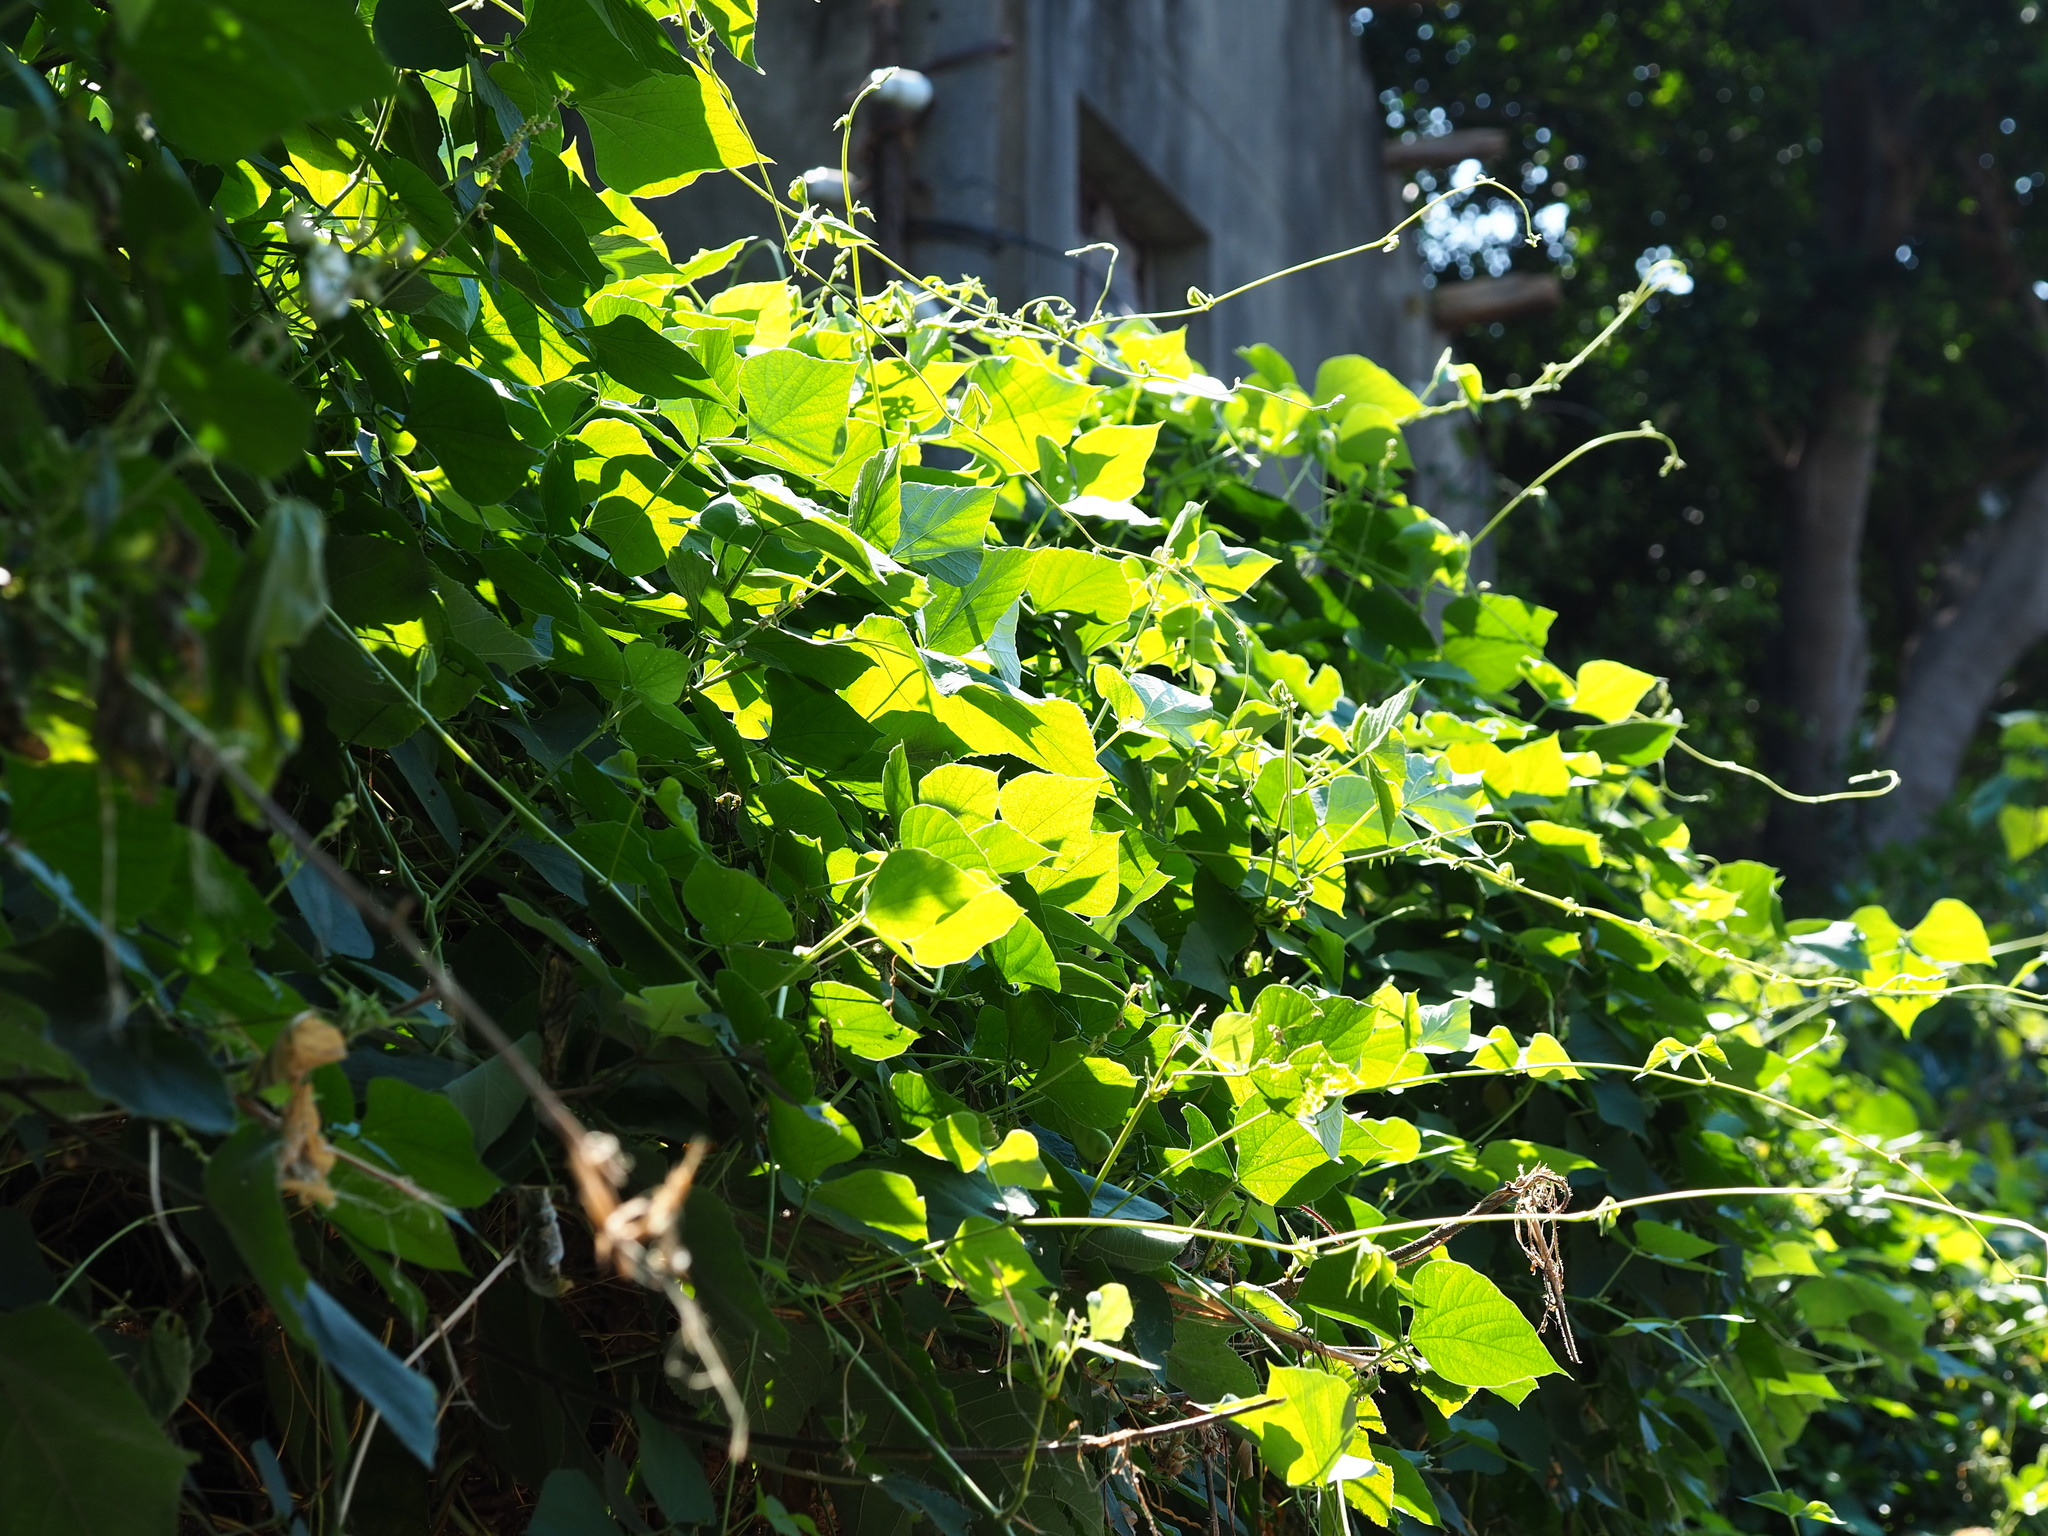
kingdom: Plantae
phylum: Tracheophyta
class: Magnoliopsida
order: Fabales
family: Fabaceae
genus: Lablab
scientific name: Lablab purpureus
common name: Lablab-bean
